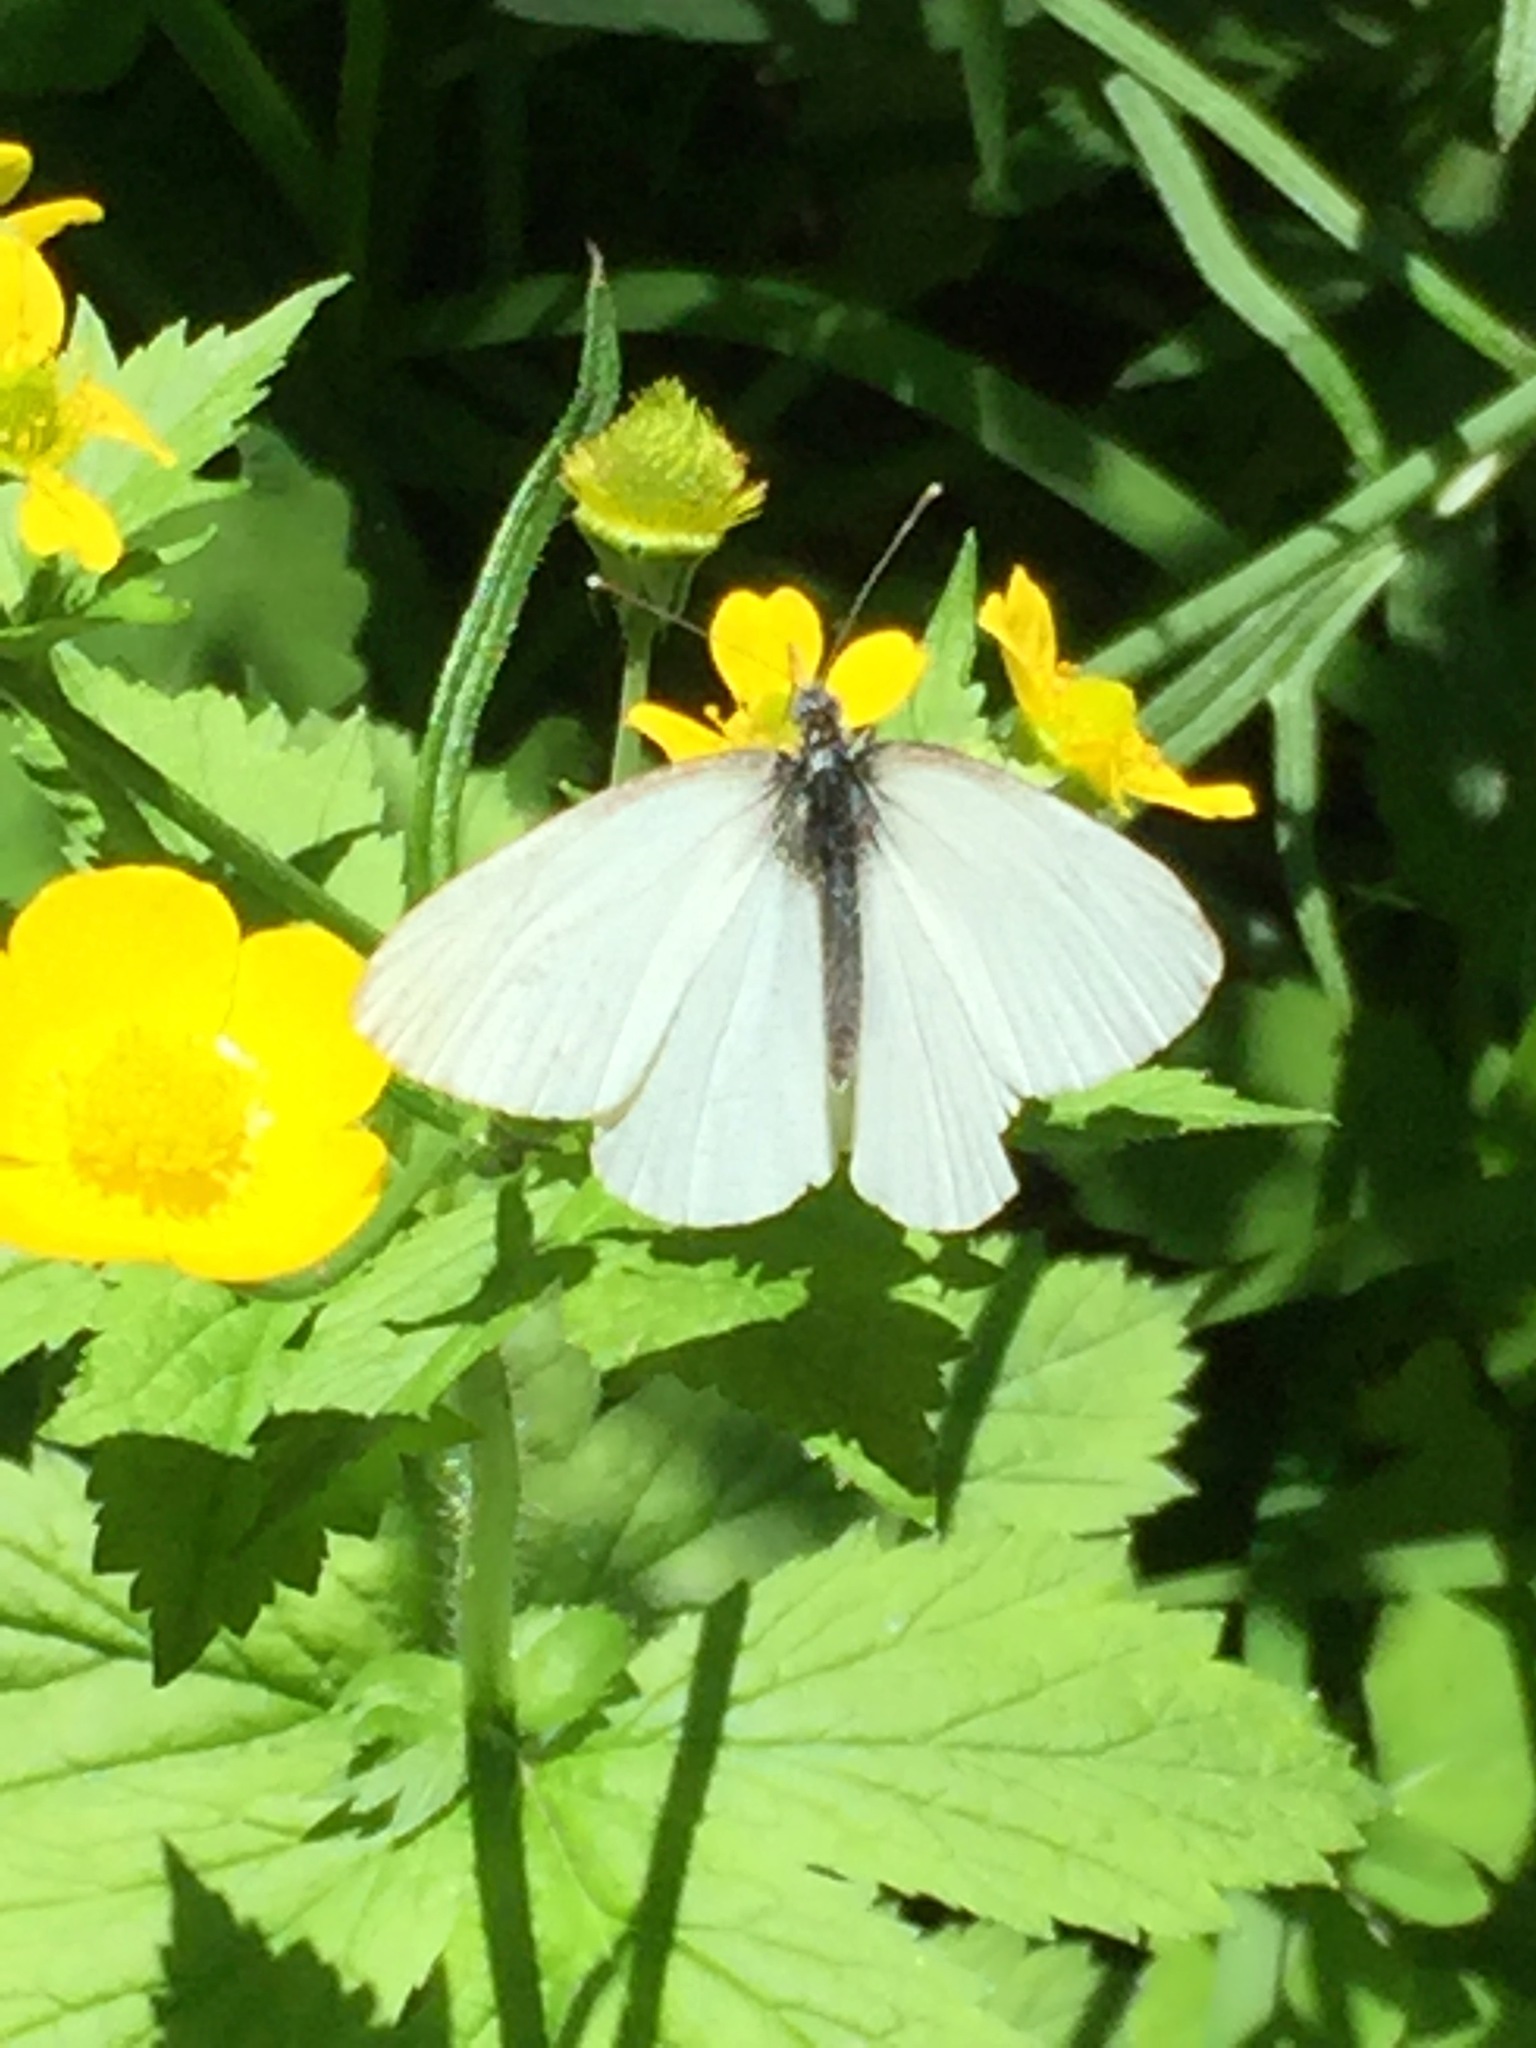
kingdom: Animalia
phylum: Arthropoda
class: Insecta
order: Lepidoptera
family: Pieridae
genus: Pieris
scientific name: Pieris oleracea
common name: Mustard white
